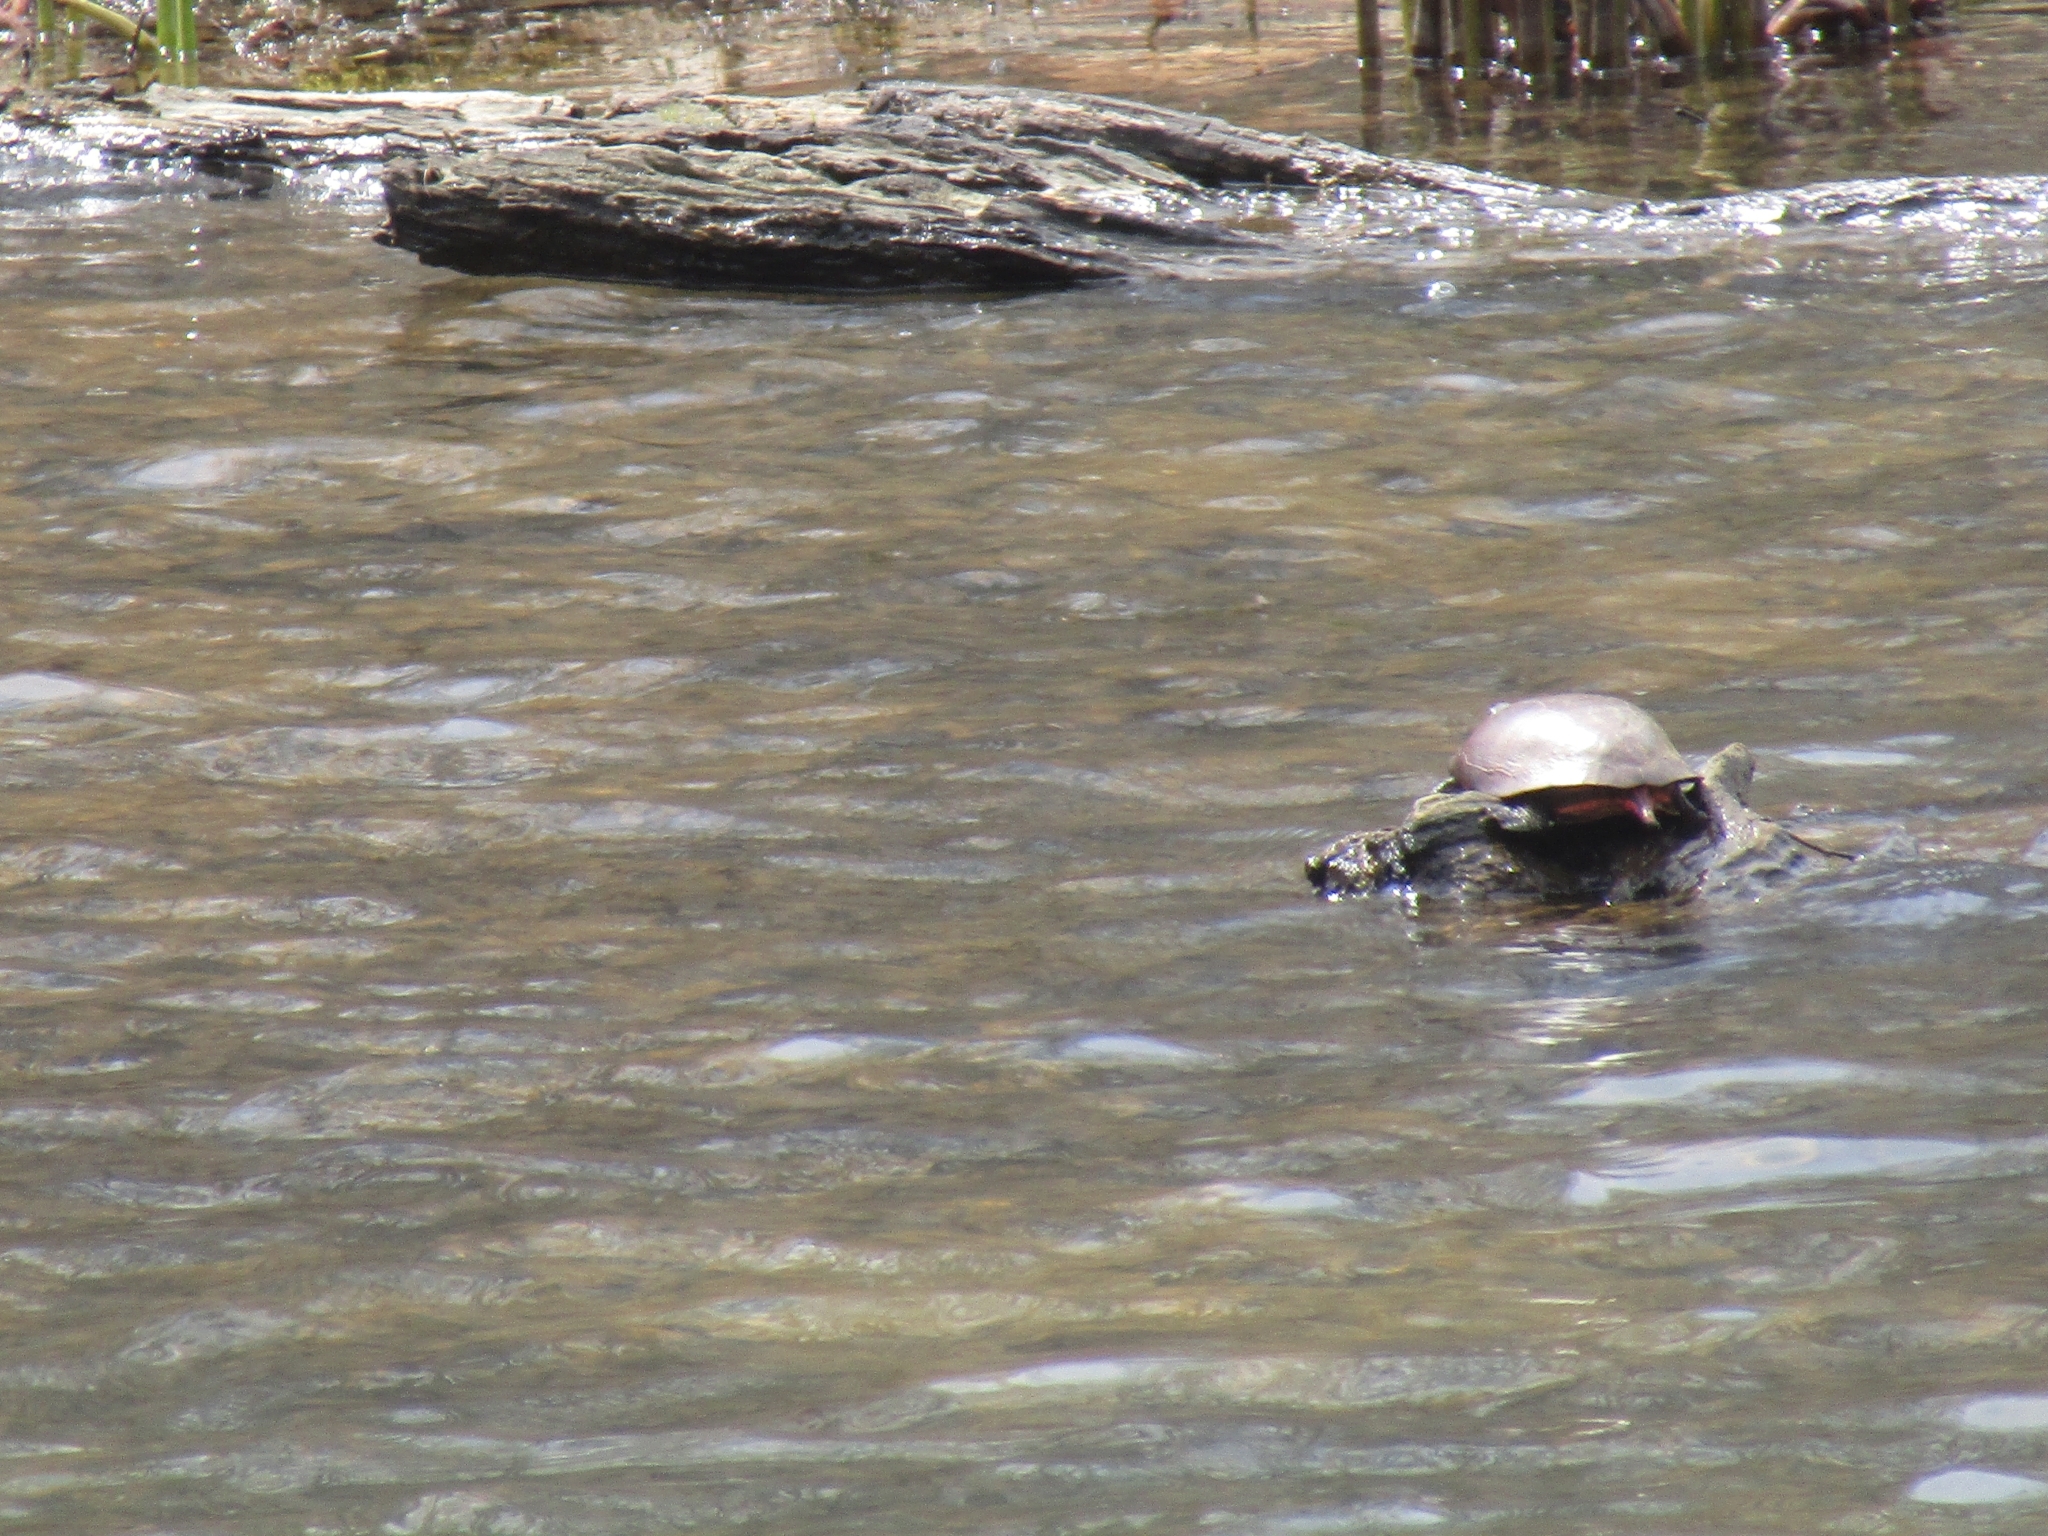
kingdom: Animalia
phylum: Chordata
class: Testudines
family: Emydidae
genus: Chrysemys
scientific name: Chrysemys picta
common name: Painted turtle
